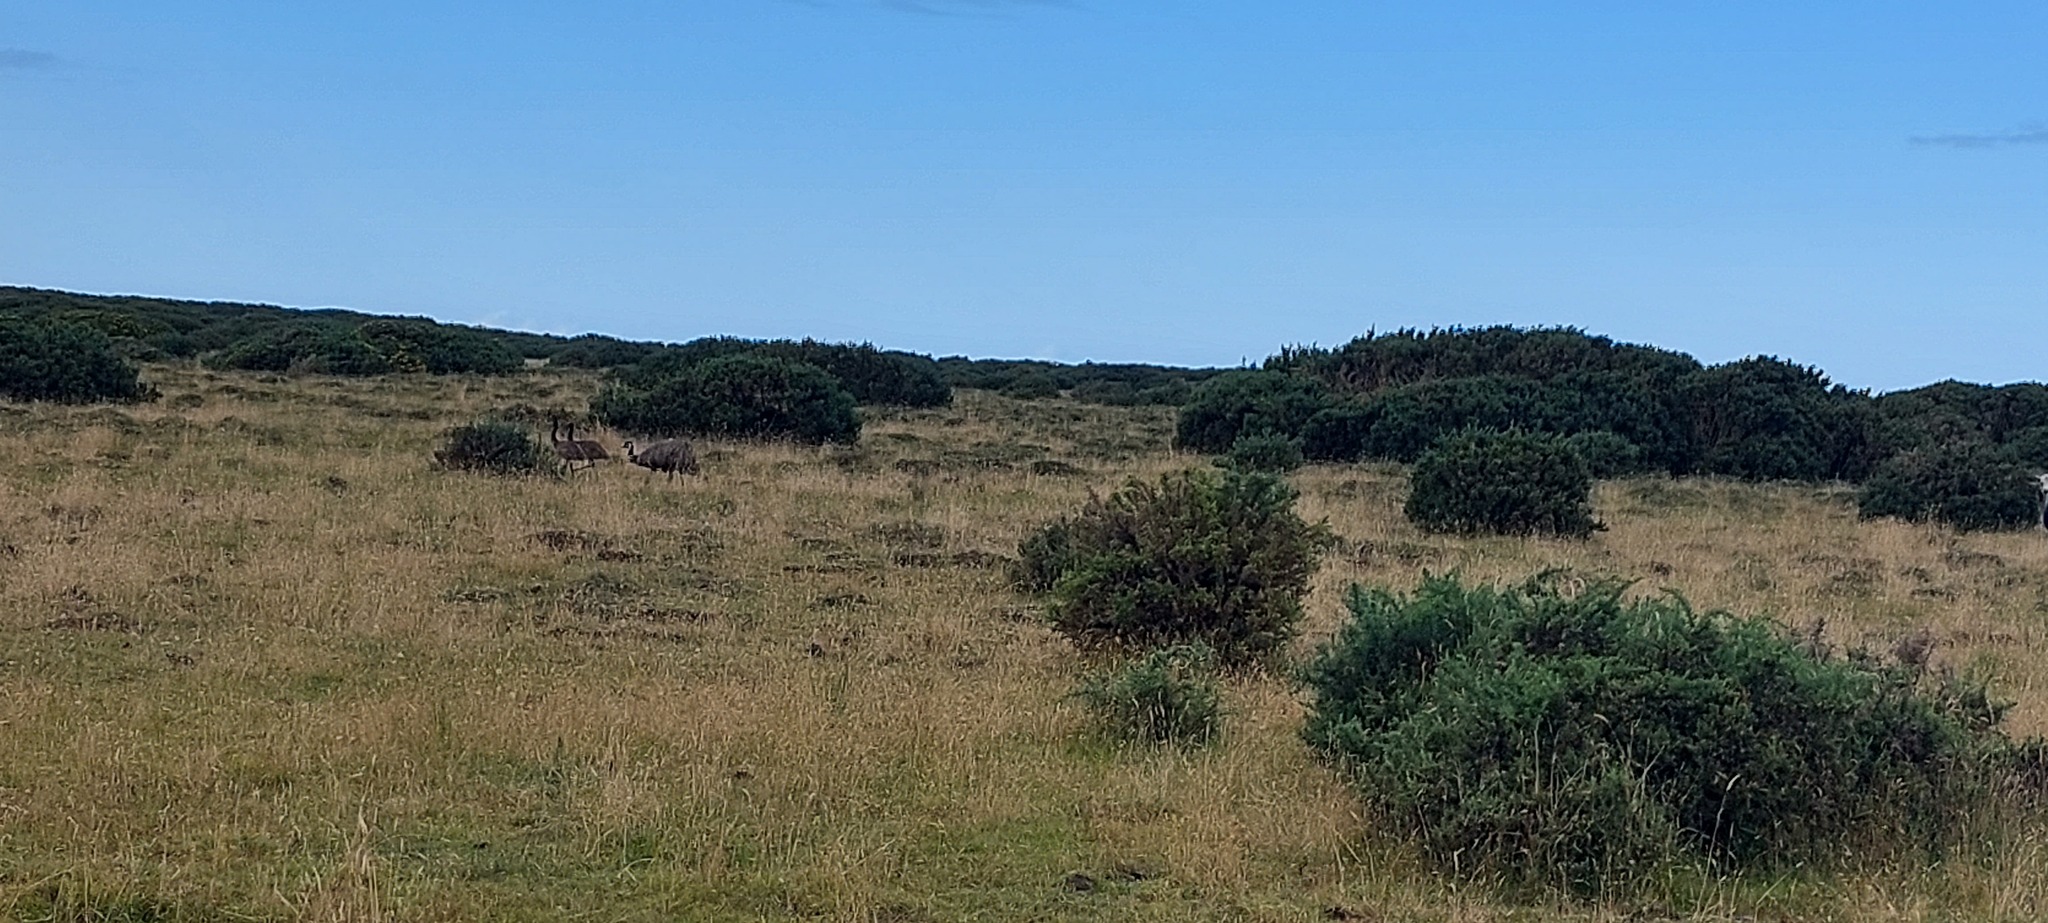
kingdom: Animalia
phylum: Chordata
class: Aves
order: Casuariiformes
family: Dromaiidae
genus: Dromaius
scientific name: Dromaius novaehollandiae
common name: Emu
